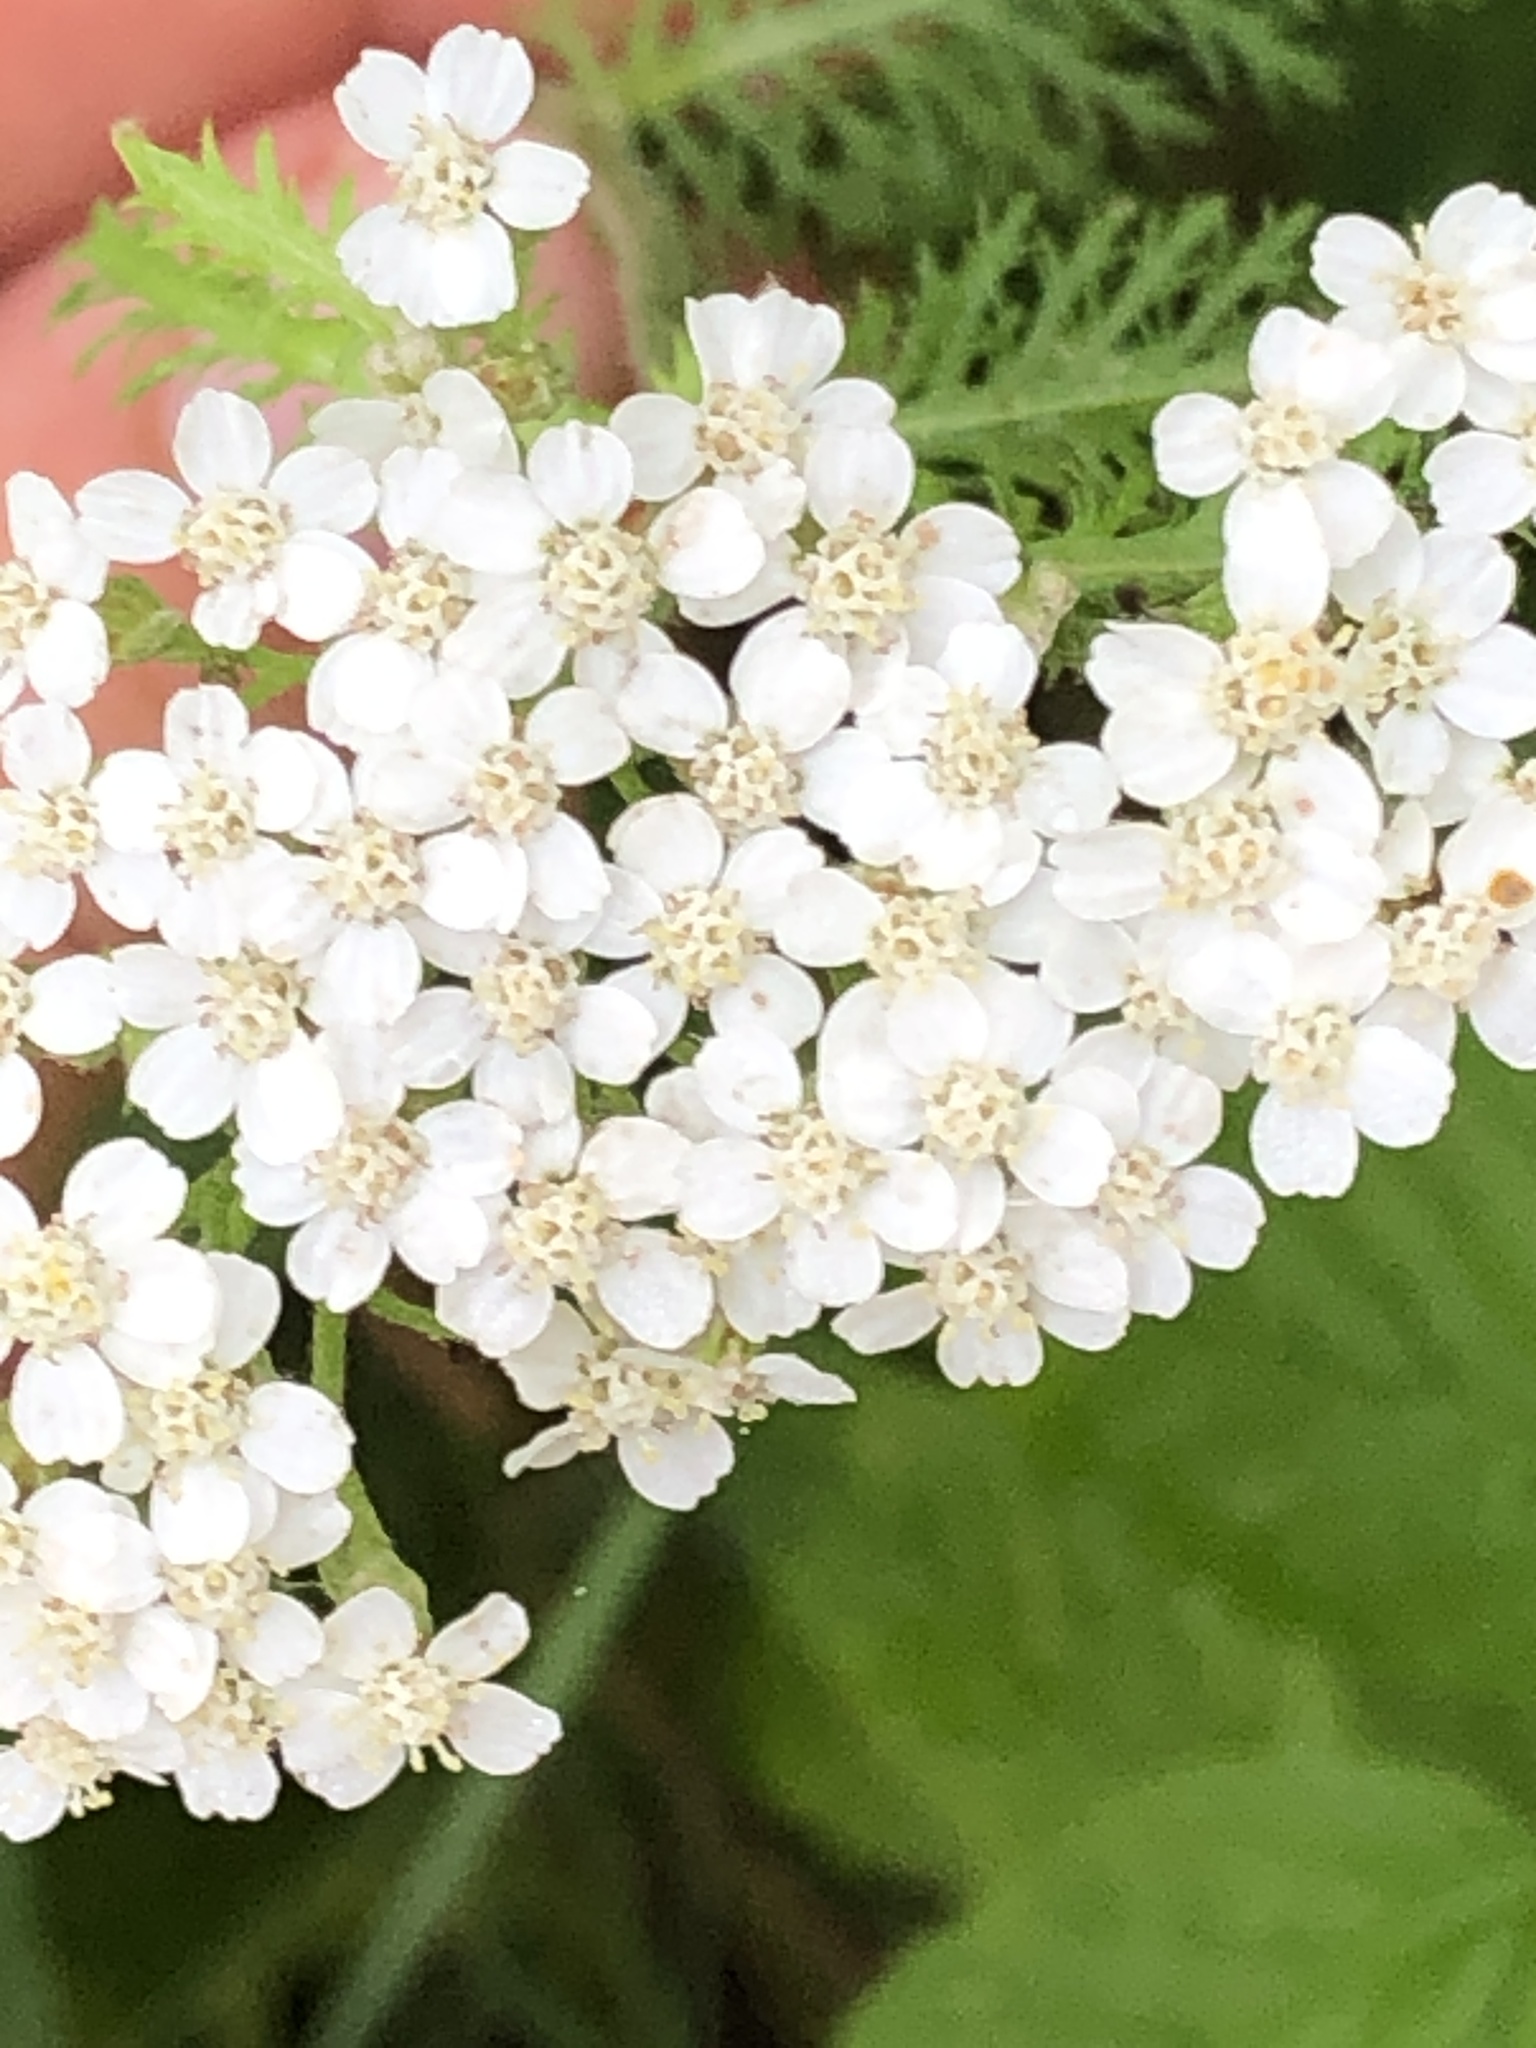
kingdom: Plantae
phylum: Tracheophyta
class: Magnoliopsida
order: Asterales
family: Asteraceae
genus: Achillea
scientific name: Achillea millefolium
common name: Yarrow
